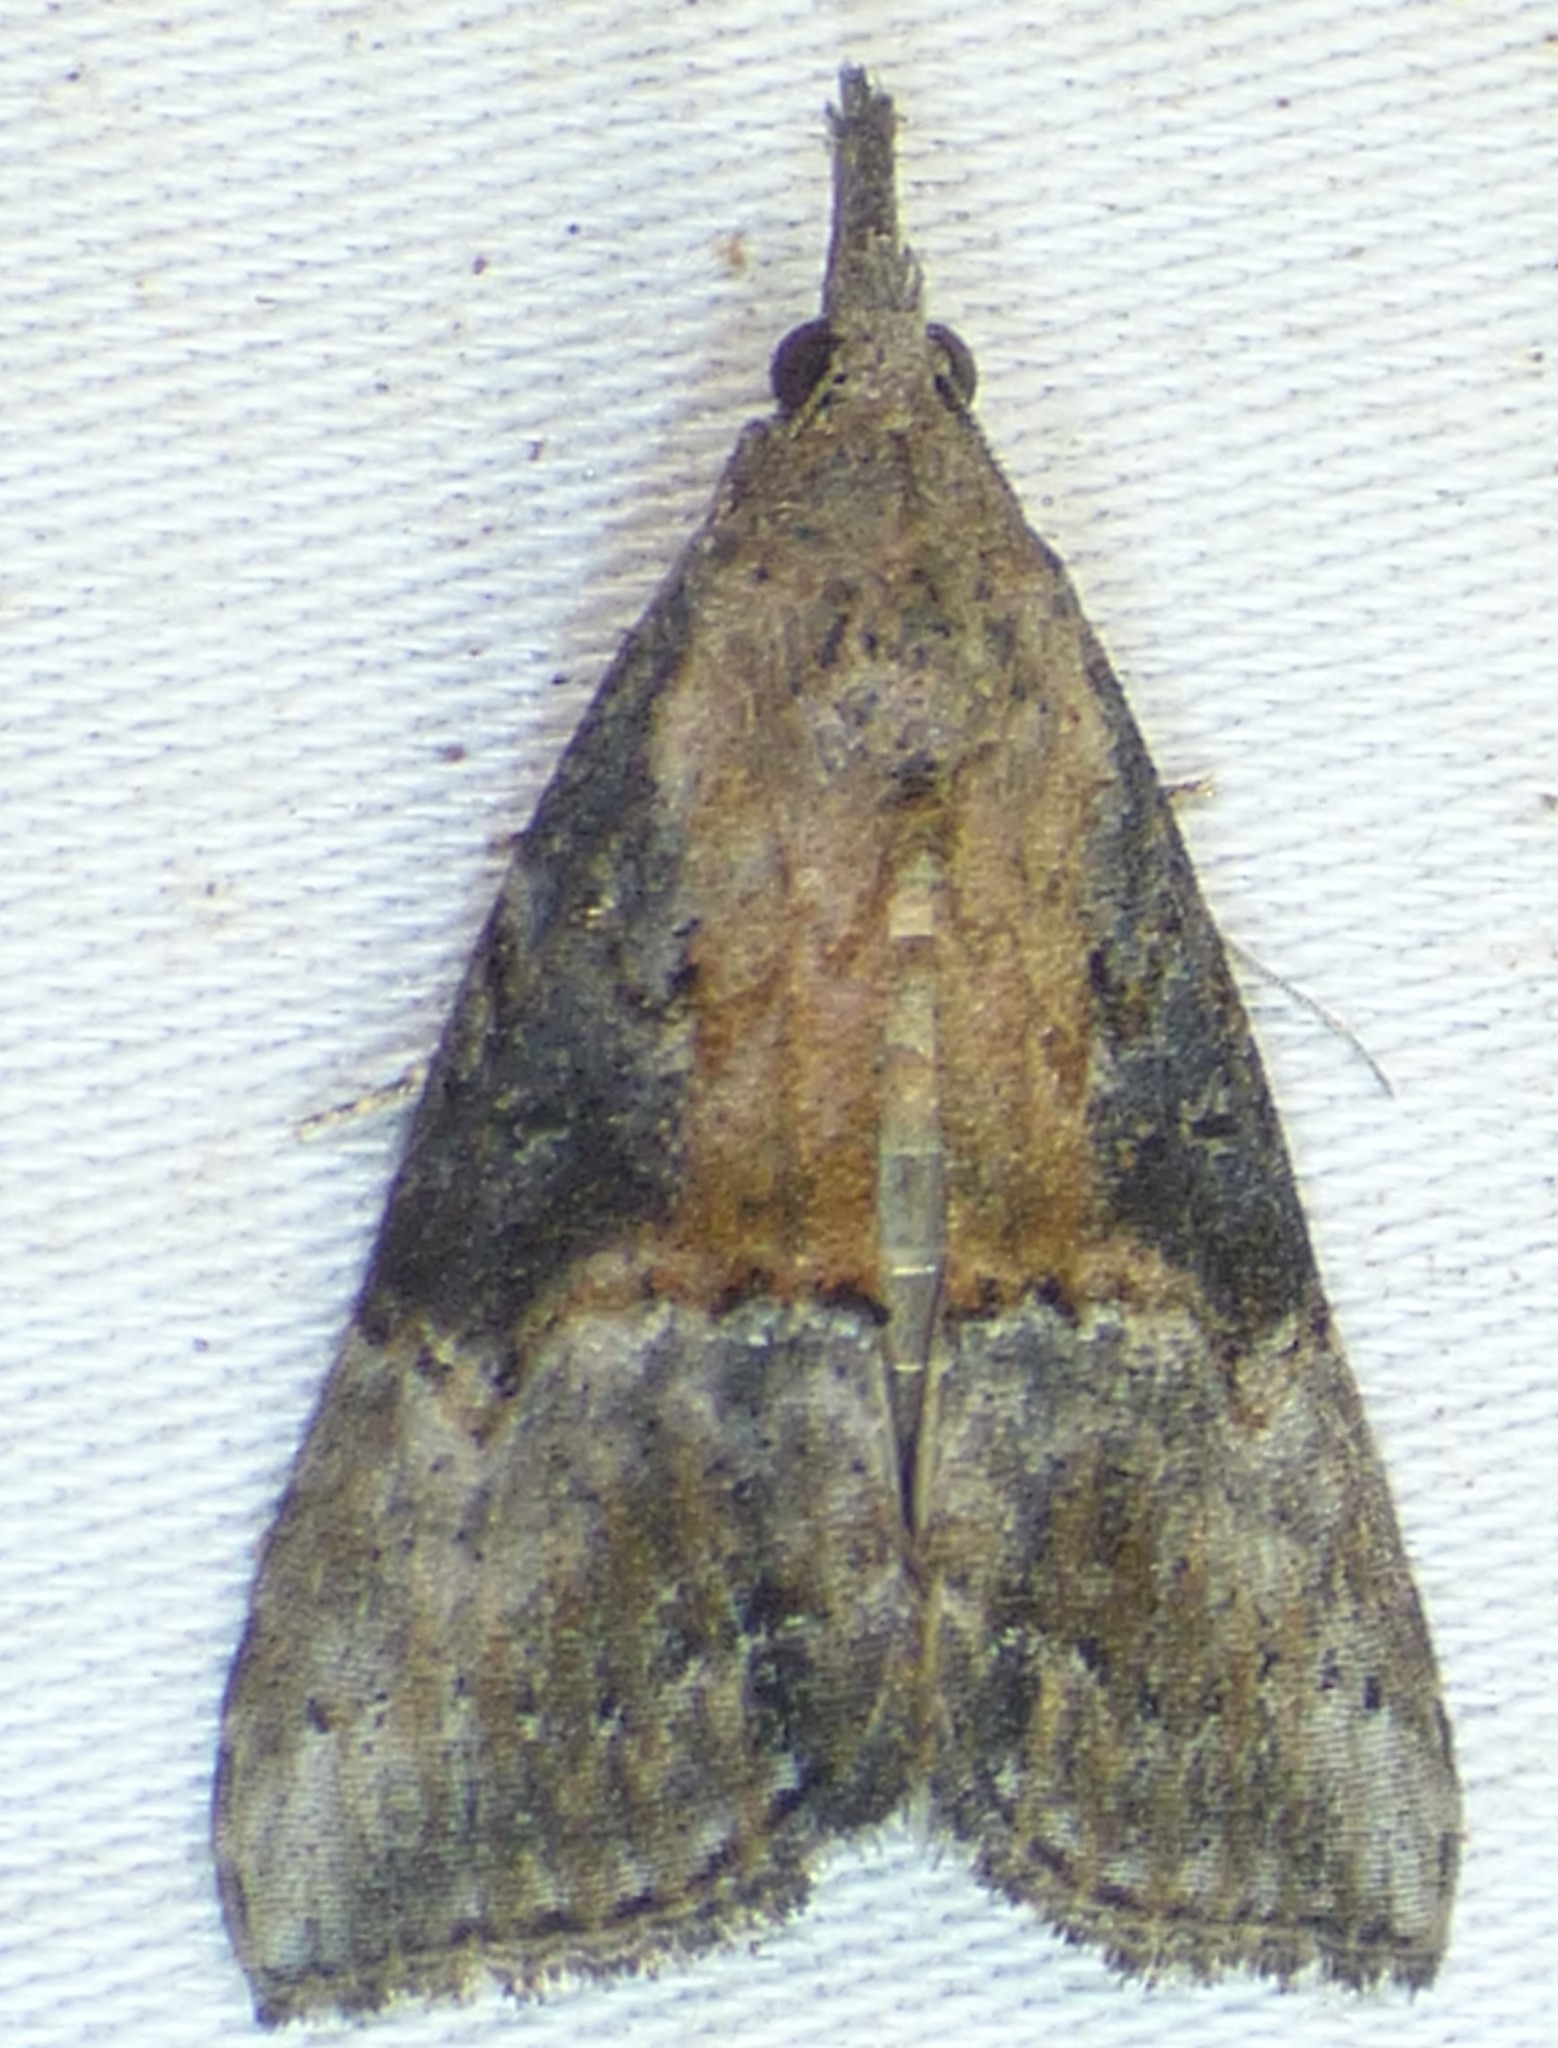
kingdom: Animalia
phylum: Arthropoda
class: Insecta
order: Lepidoptera
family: Erebidae
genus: Hypena
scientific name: Hypena scabra
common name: Green cloverworm
